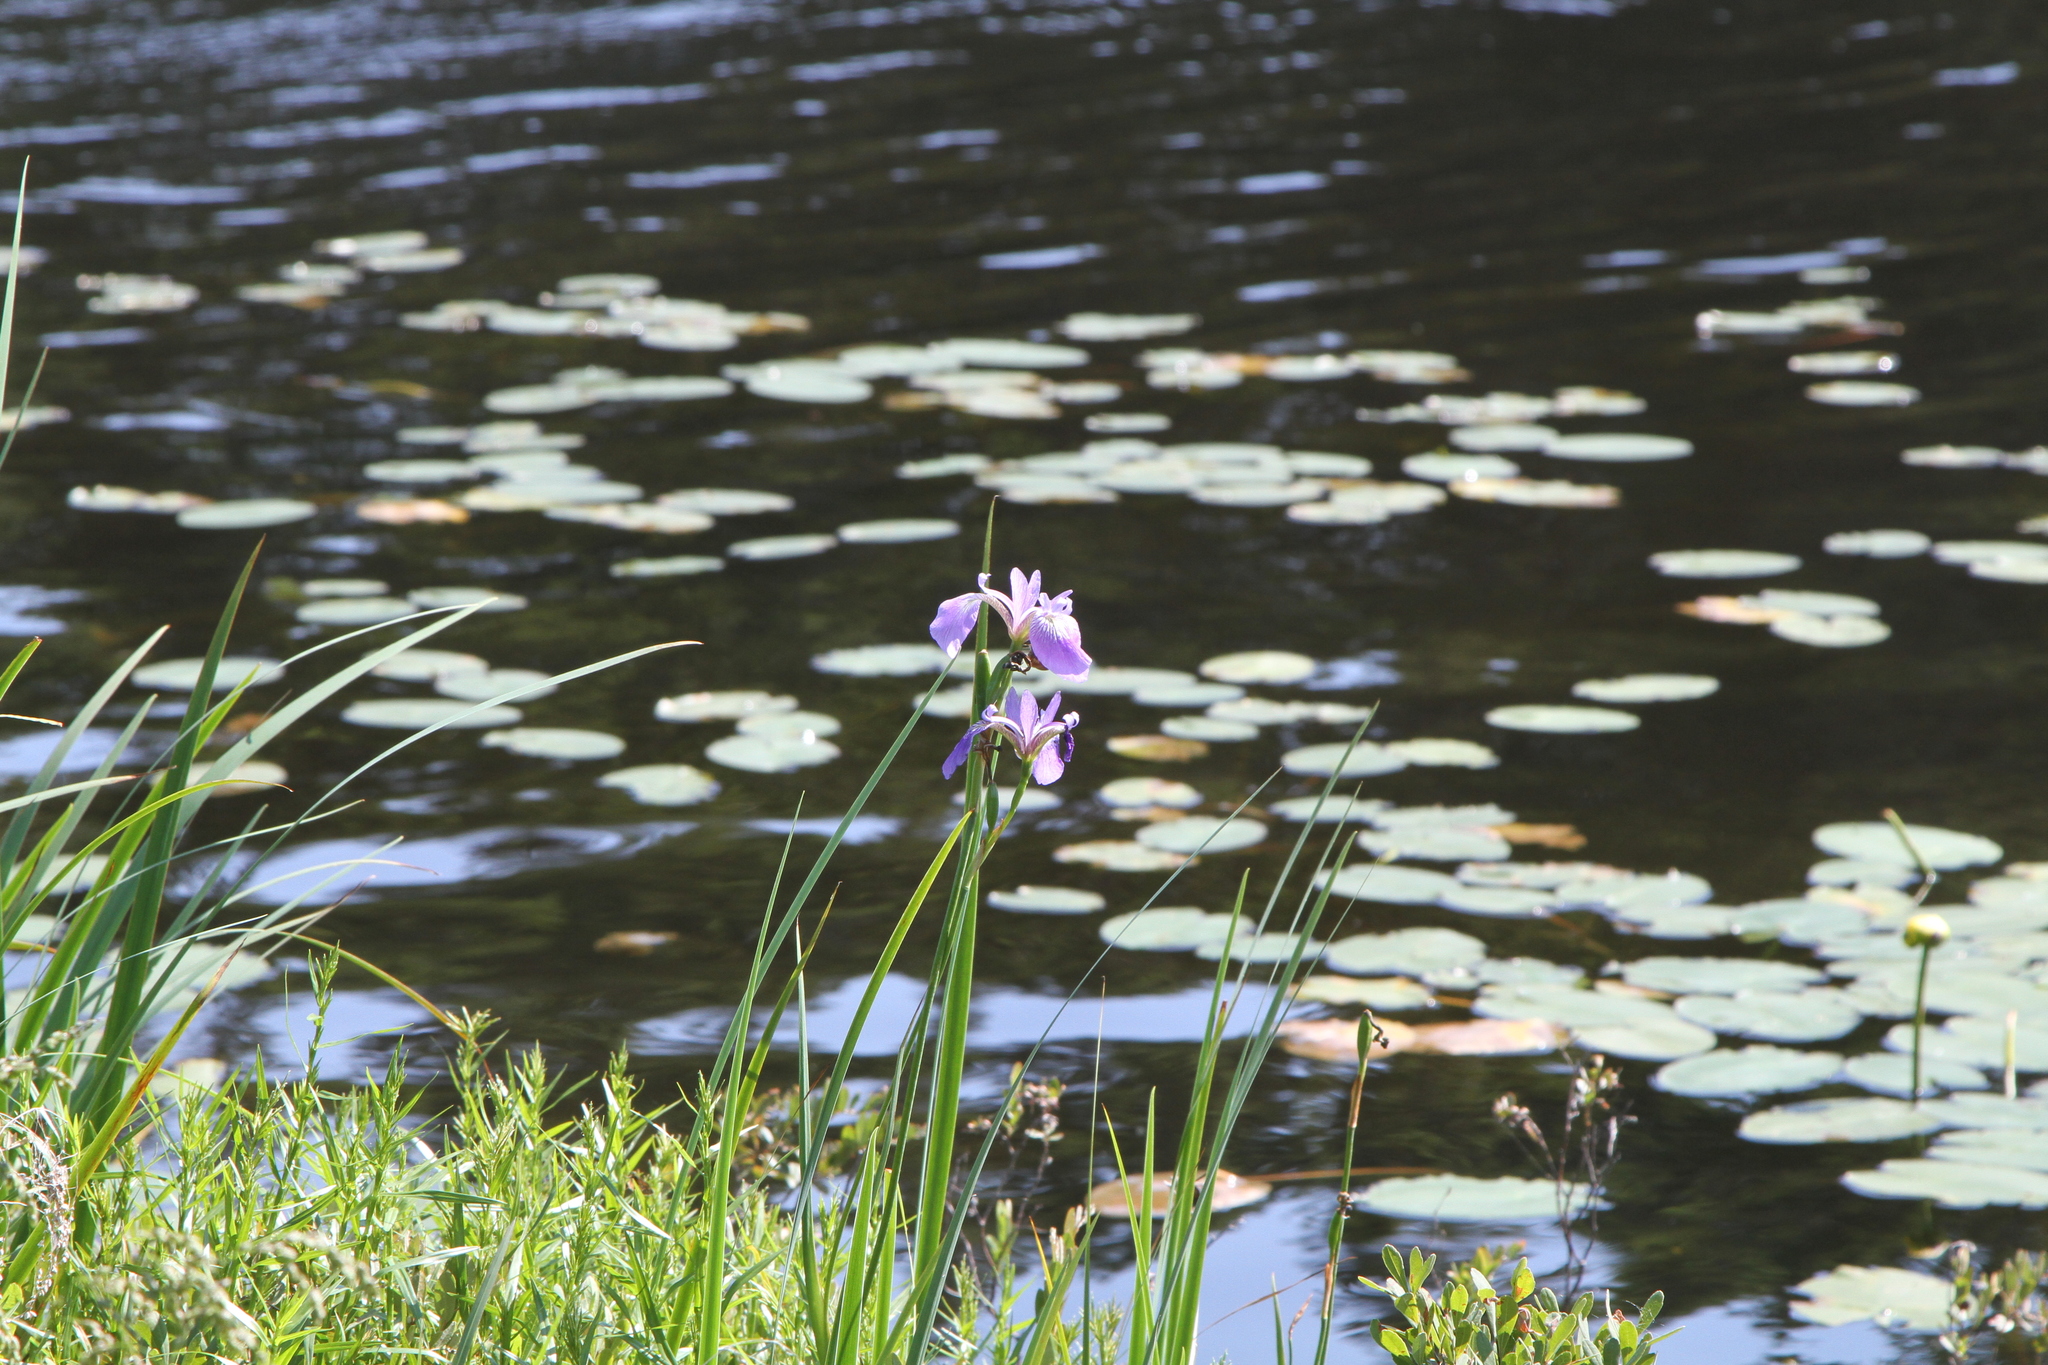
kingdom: Plantae
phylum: Tracheophyta
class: Liliopsida
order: Asparagales
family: Iridaceae
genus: Iris
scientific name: Iris versicolor
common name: Purple iris
